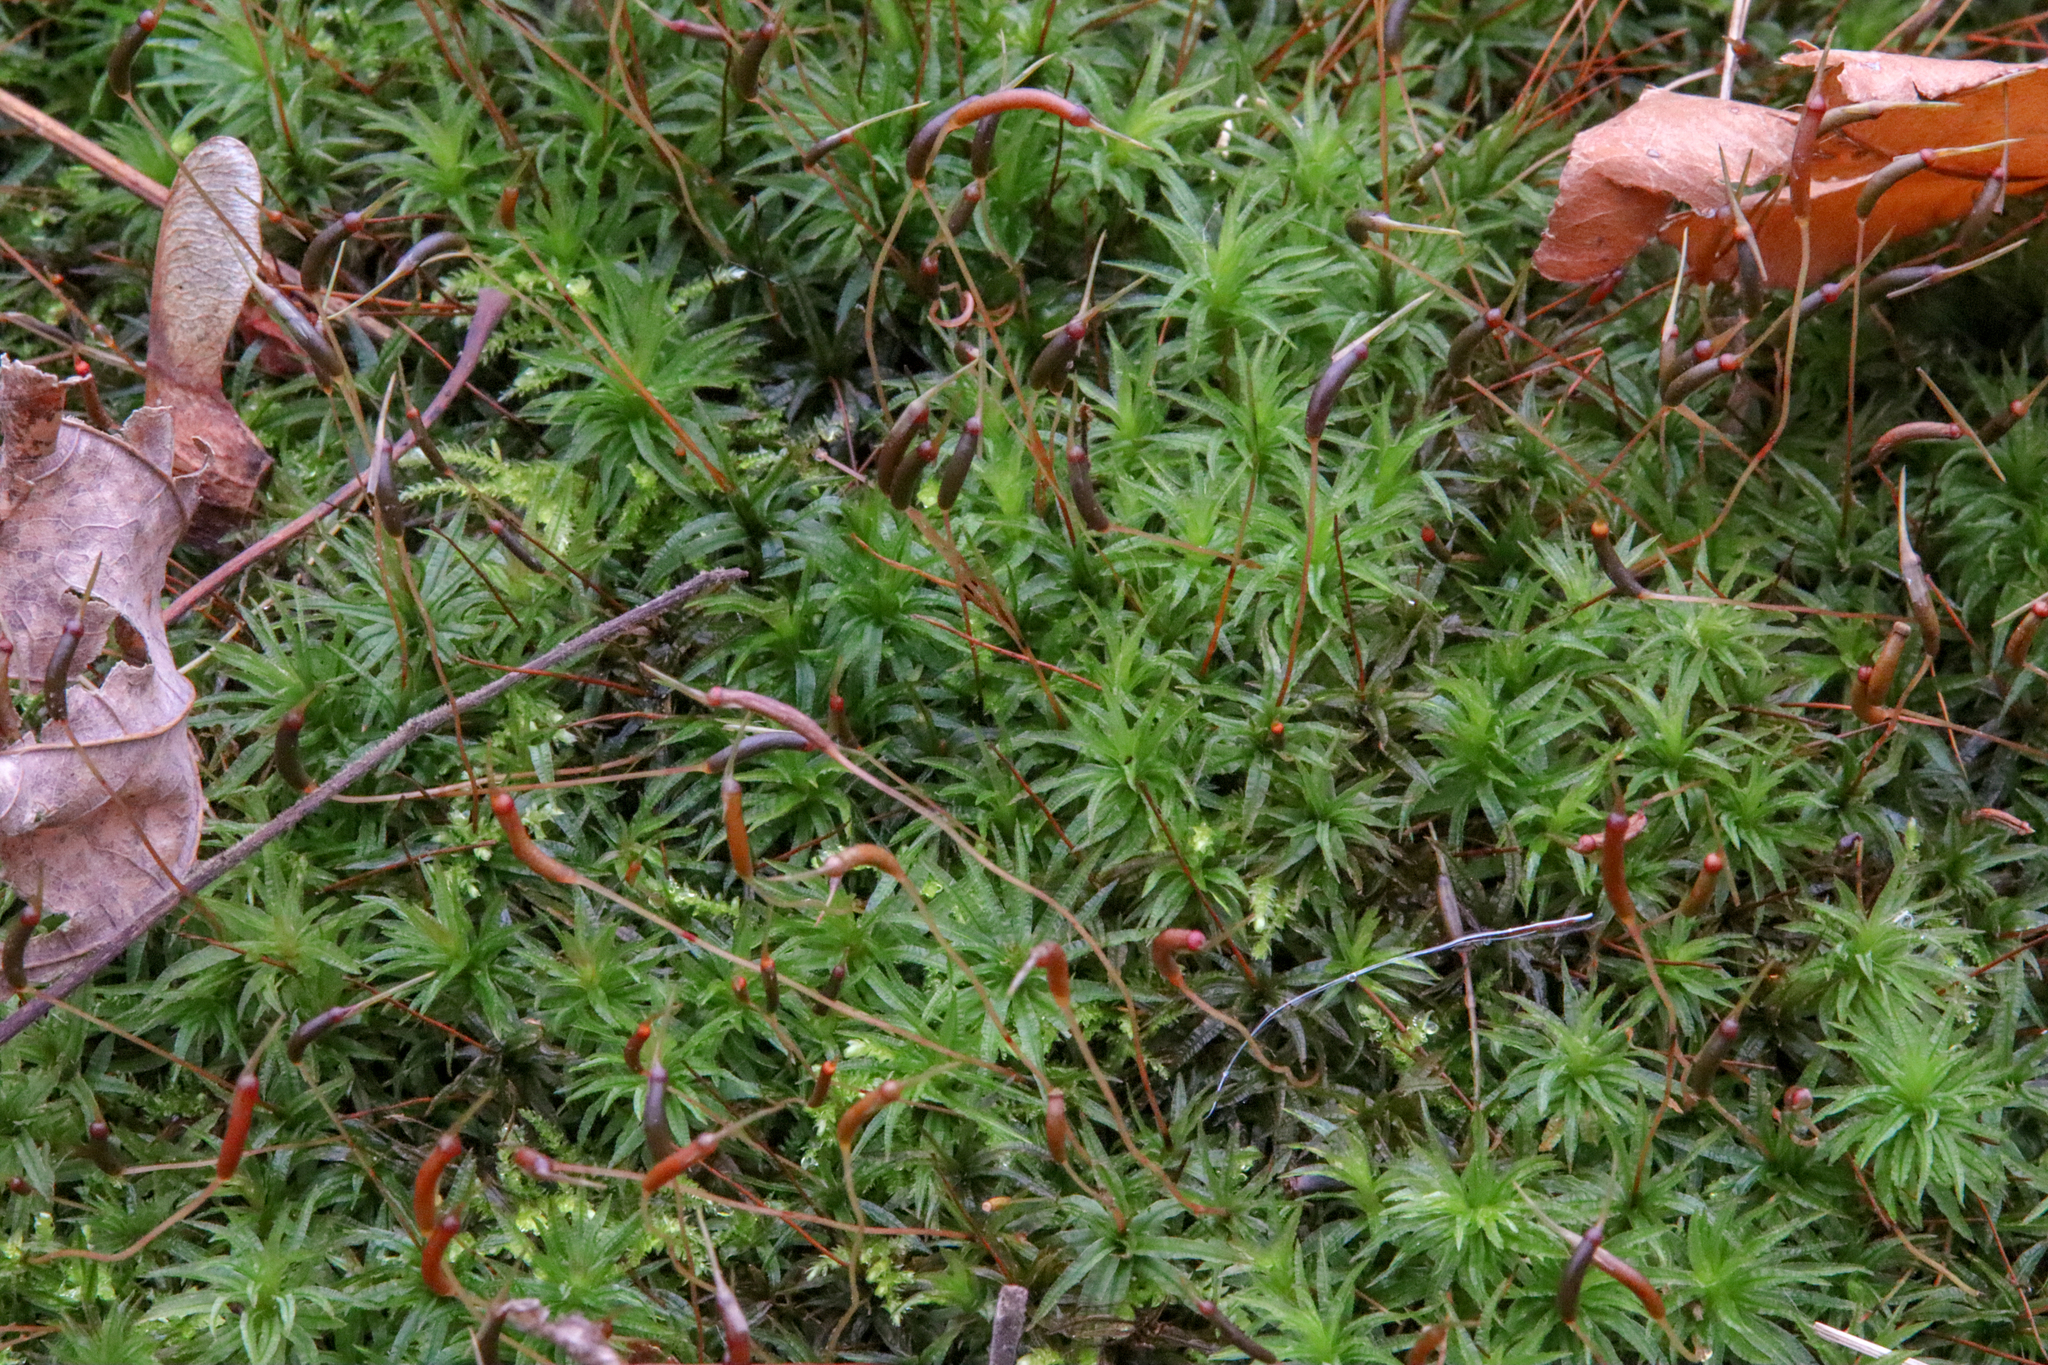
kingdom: Plantae
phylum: Bryophyta
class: Polytrichopsida
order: Polytrichales
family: Polytrichaceae
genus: Atrichum
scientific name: Atrichum undulatum
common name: Common smoothcap
